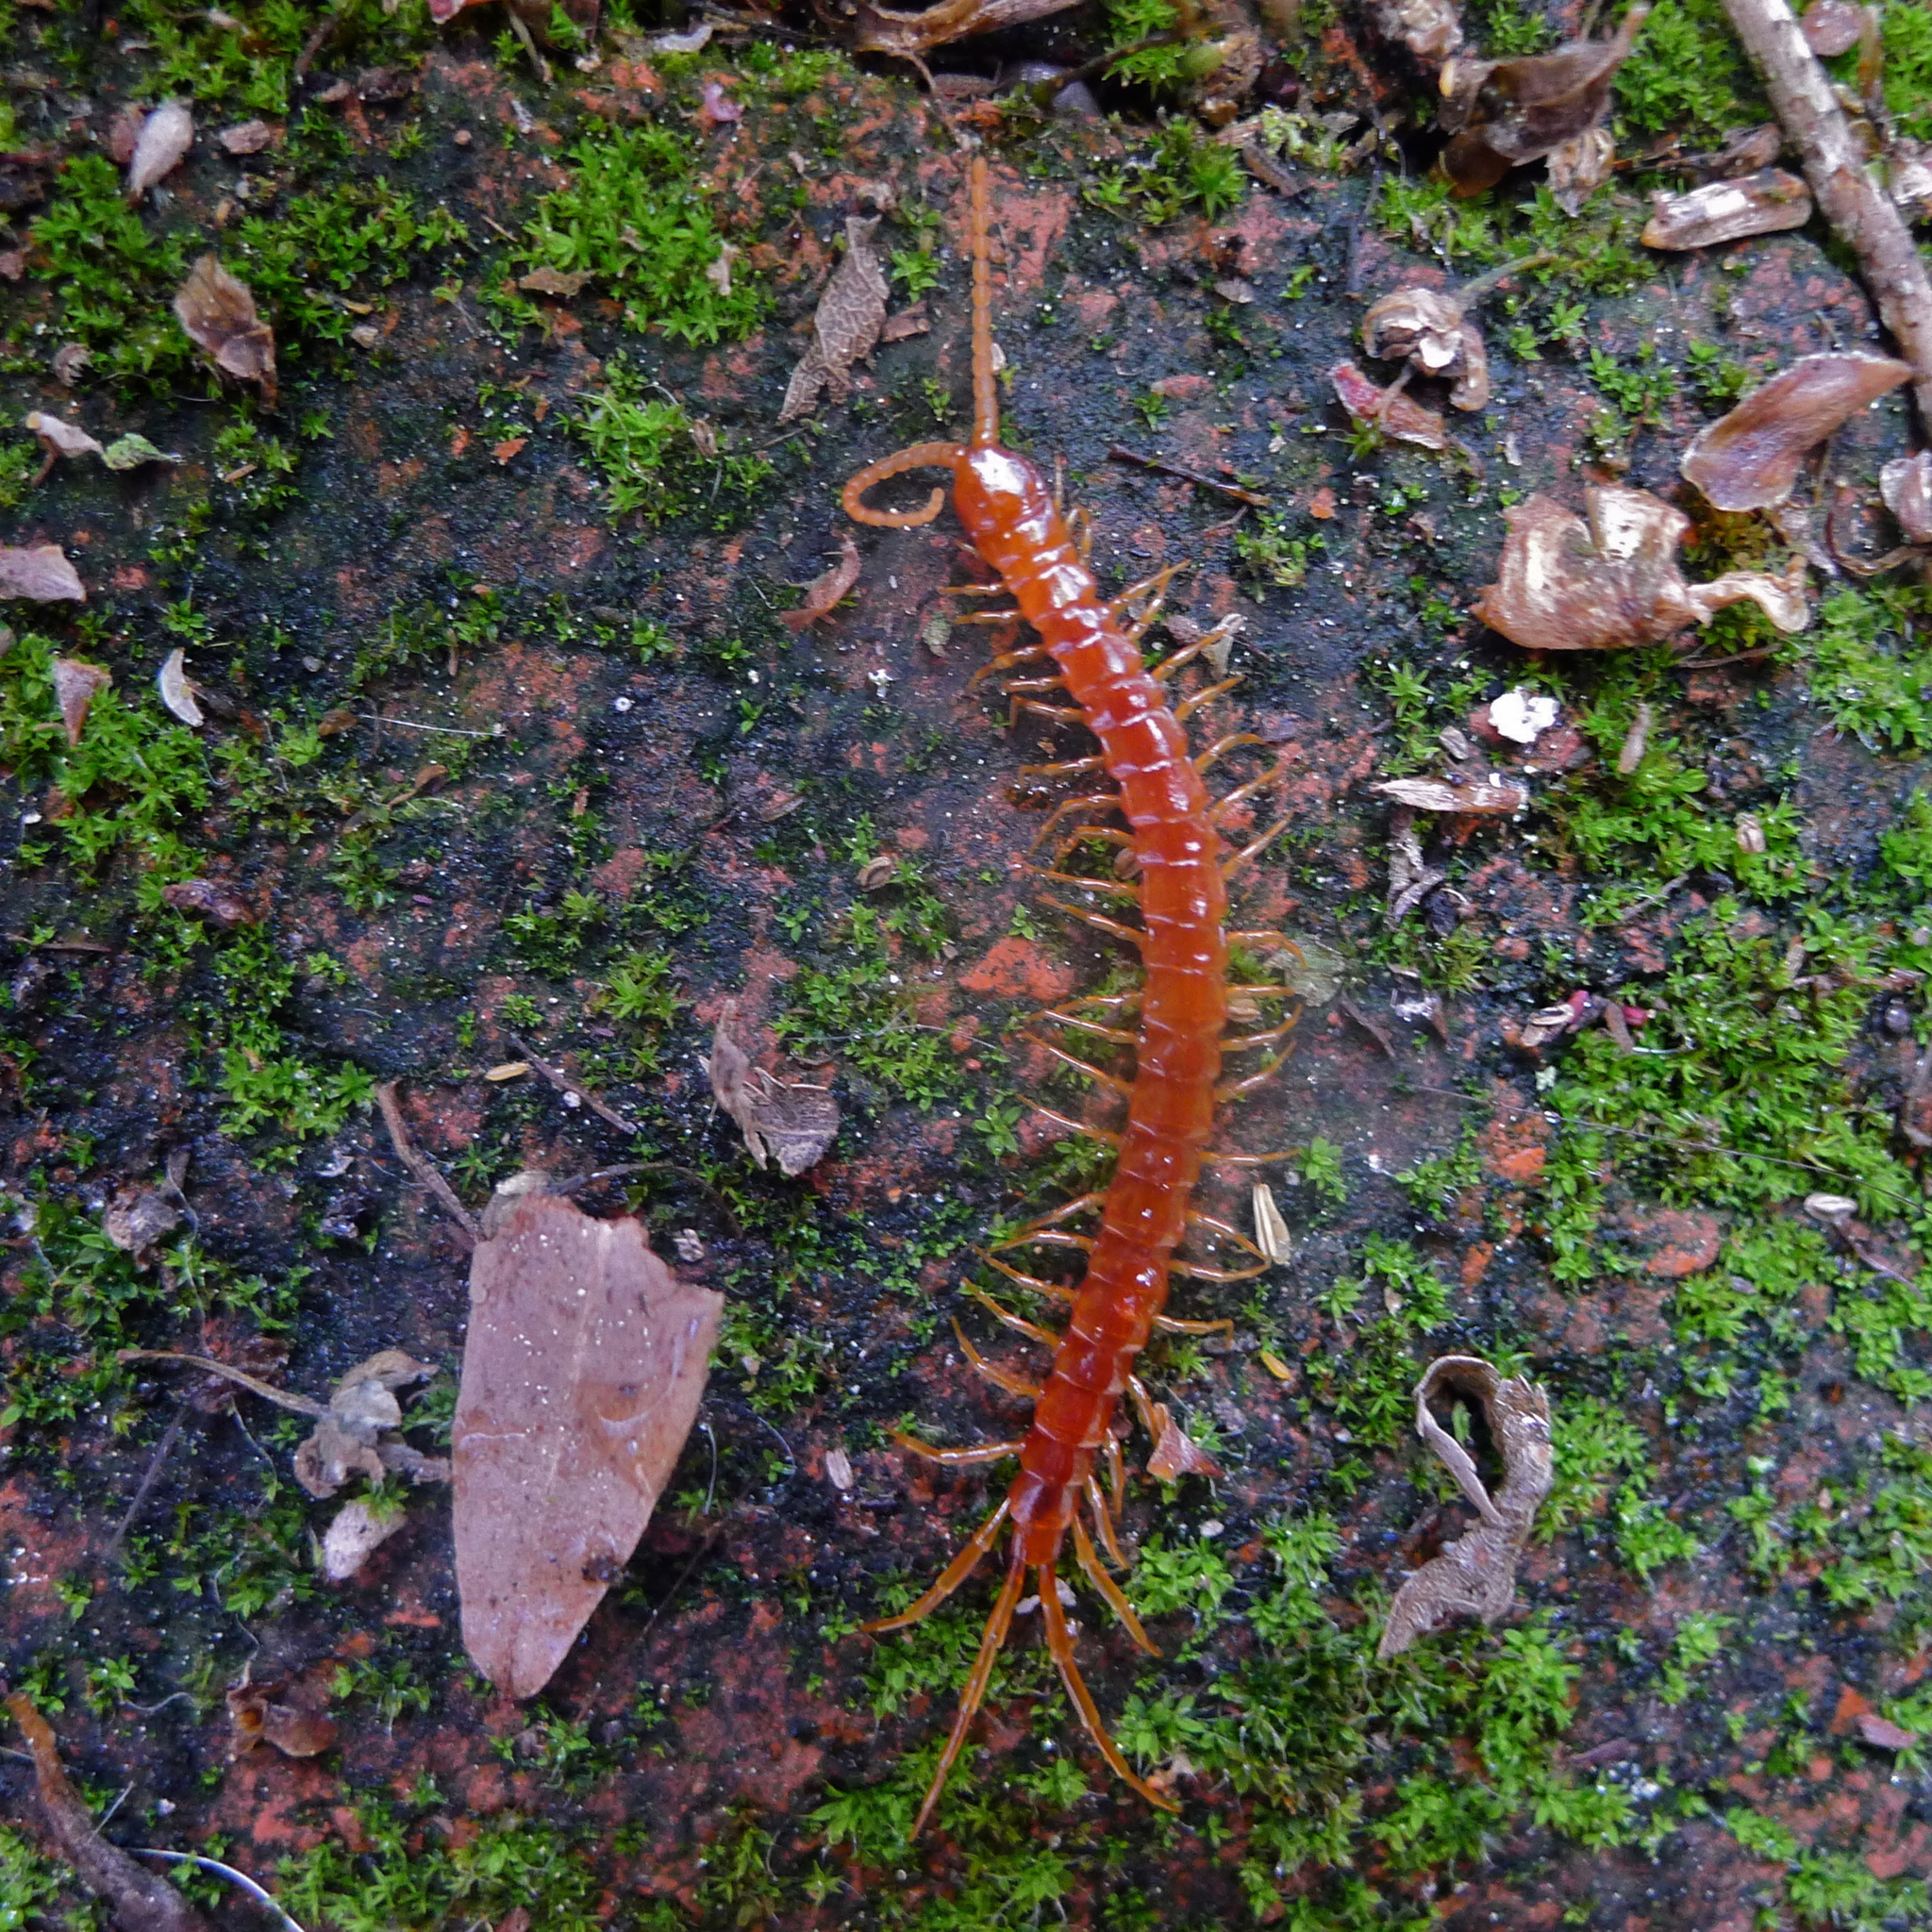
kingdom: Animalia
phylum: Arthropoda
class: Chilopoda
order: Scolopendromorpha
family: Scolopocryptopidae
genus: Scolopocryptops
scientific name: Scolopocryptops spinicaudus
